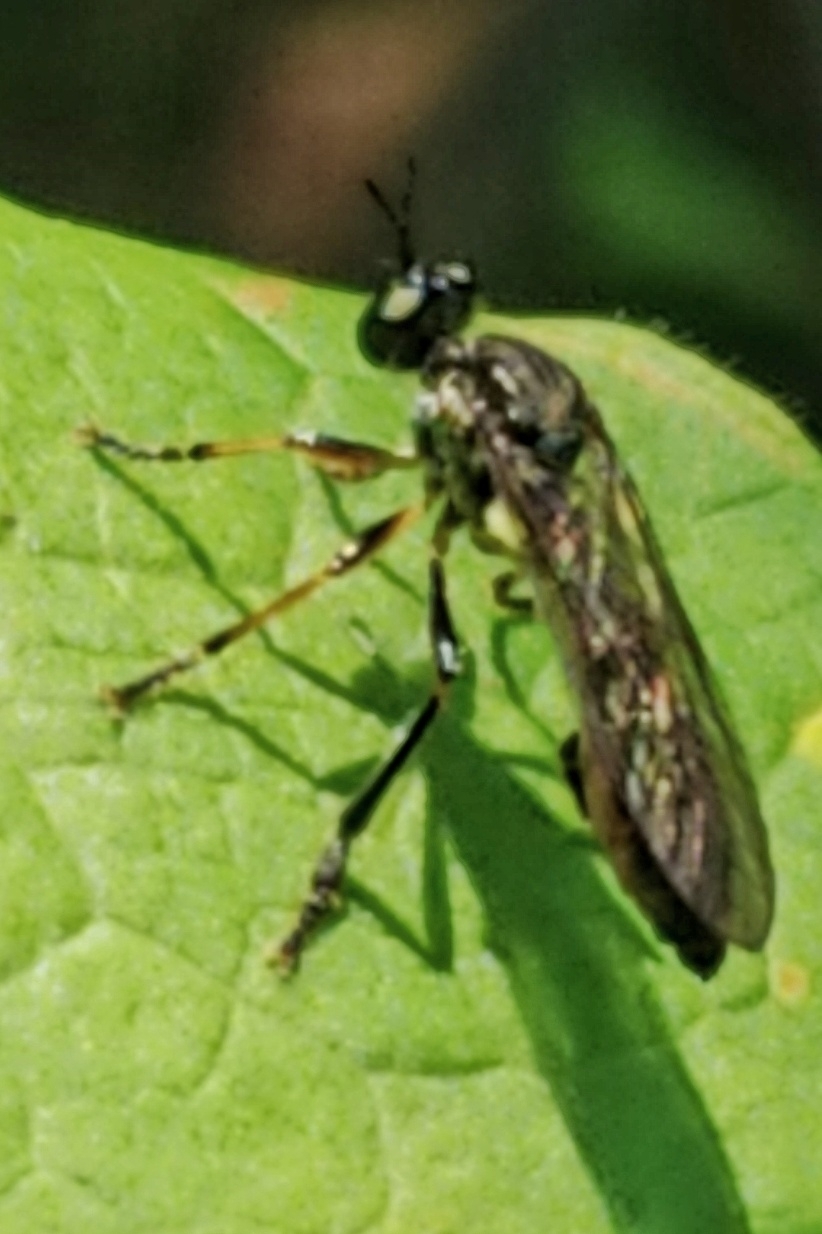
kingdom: Animalia
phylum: Arthropoda
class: Insecta
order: Diptera
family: Asilidae
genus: Dioctria
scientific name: Dioctria hyalipennis
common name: Stripe-legged robberfly
